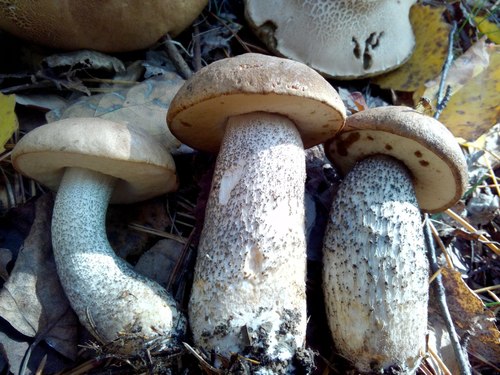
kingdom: Fungi
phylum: Basidiomycota
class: Agaricomycetes
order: Boletales
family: Boletaceae
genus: Leccinum
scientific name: Leccinum scabrum
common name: Blushing bolete
